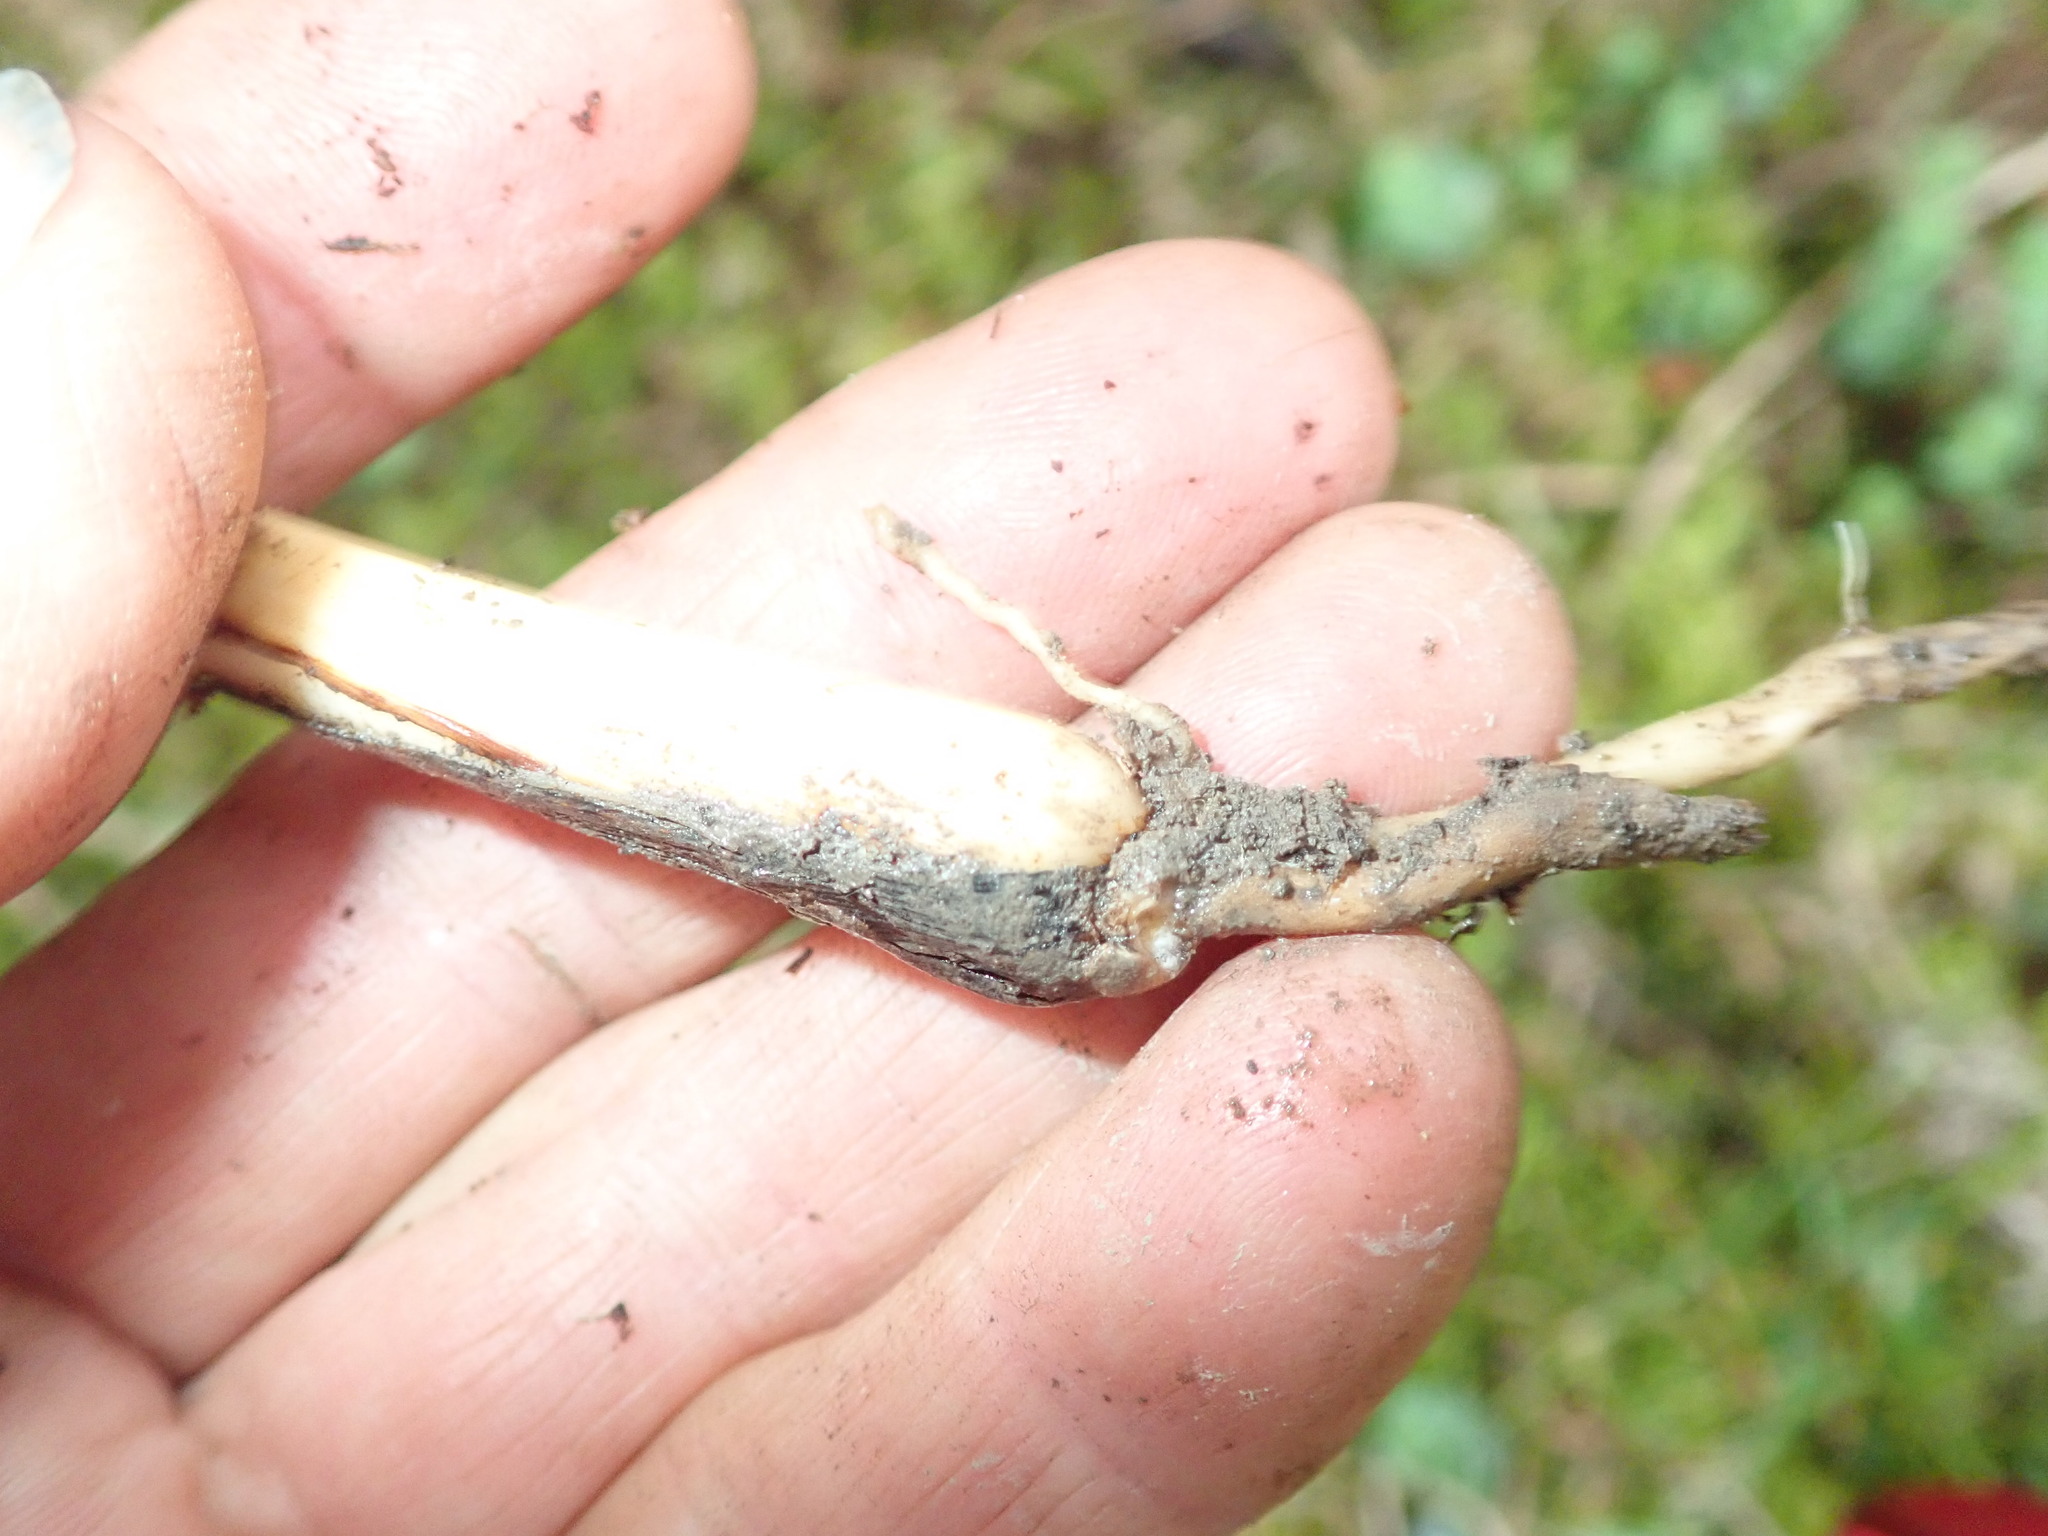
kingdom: Plantae
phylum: Tracheophyta
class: Liliopsida
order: Arecales
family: Arecaceae
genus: Phoenix
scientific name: Phoenix canariensis
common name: Canary island date palm
